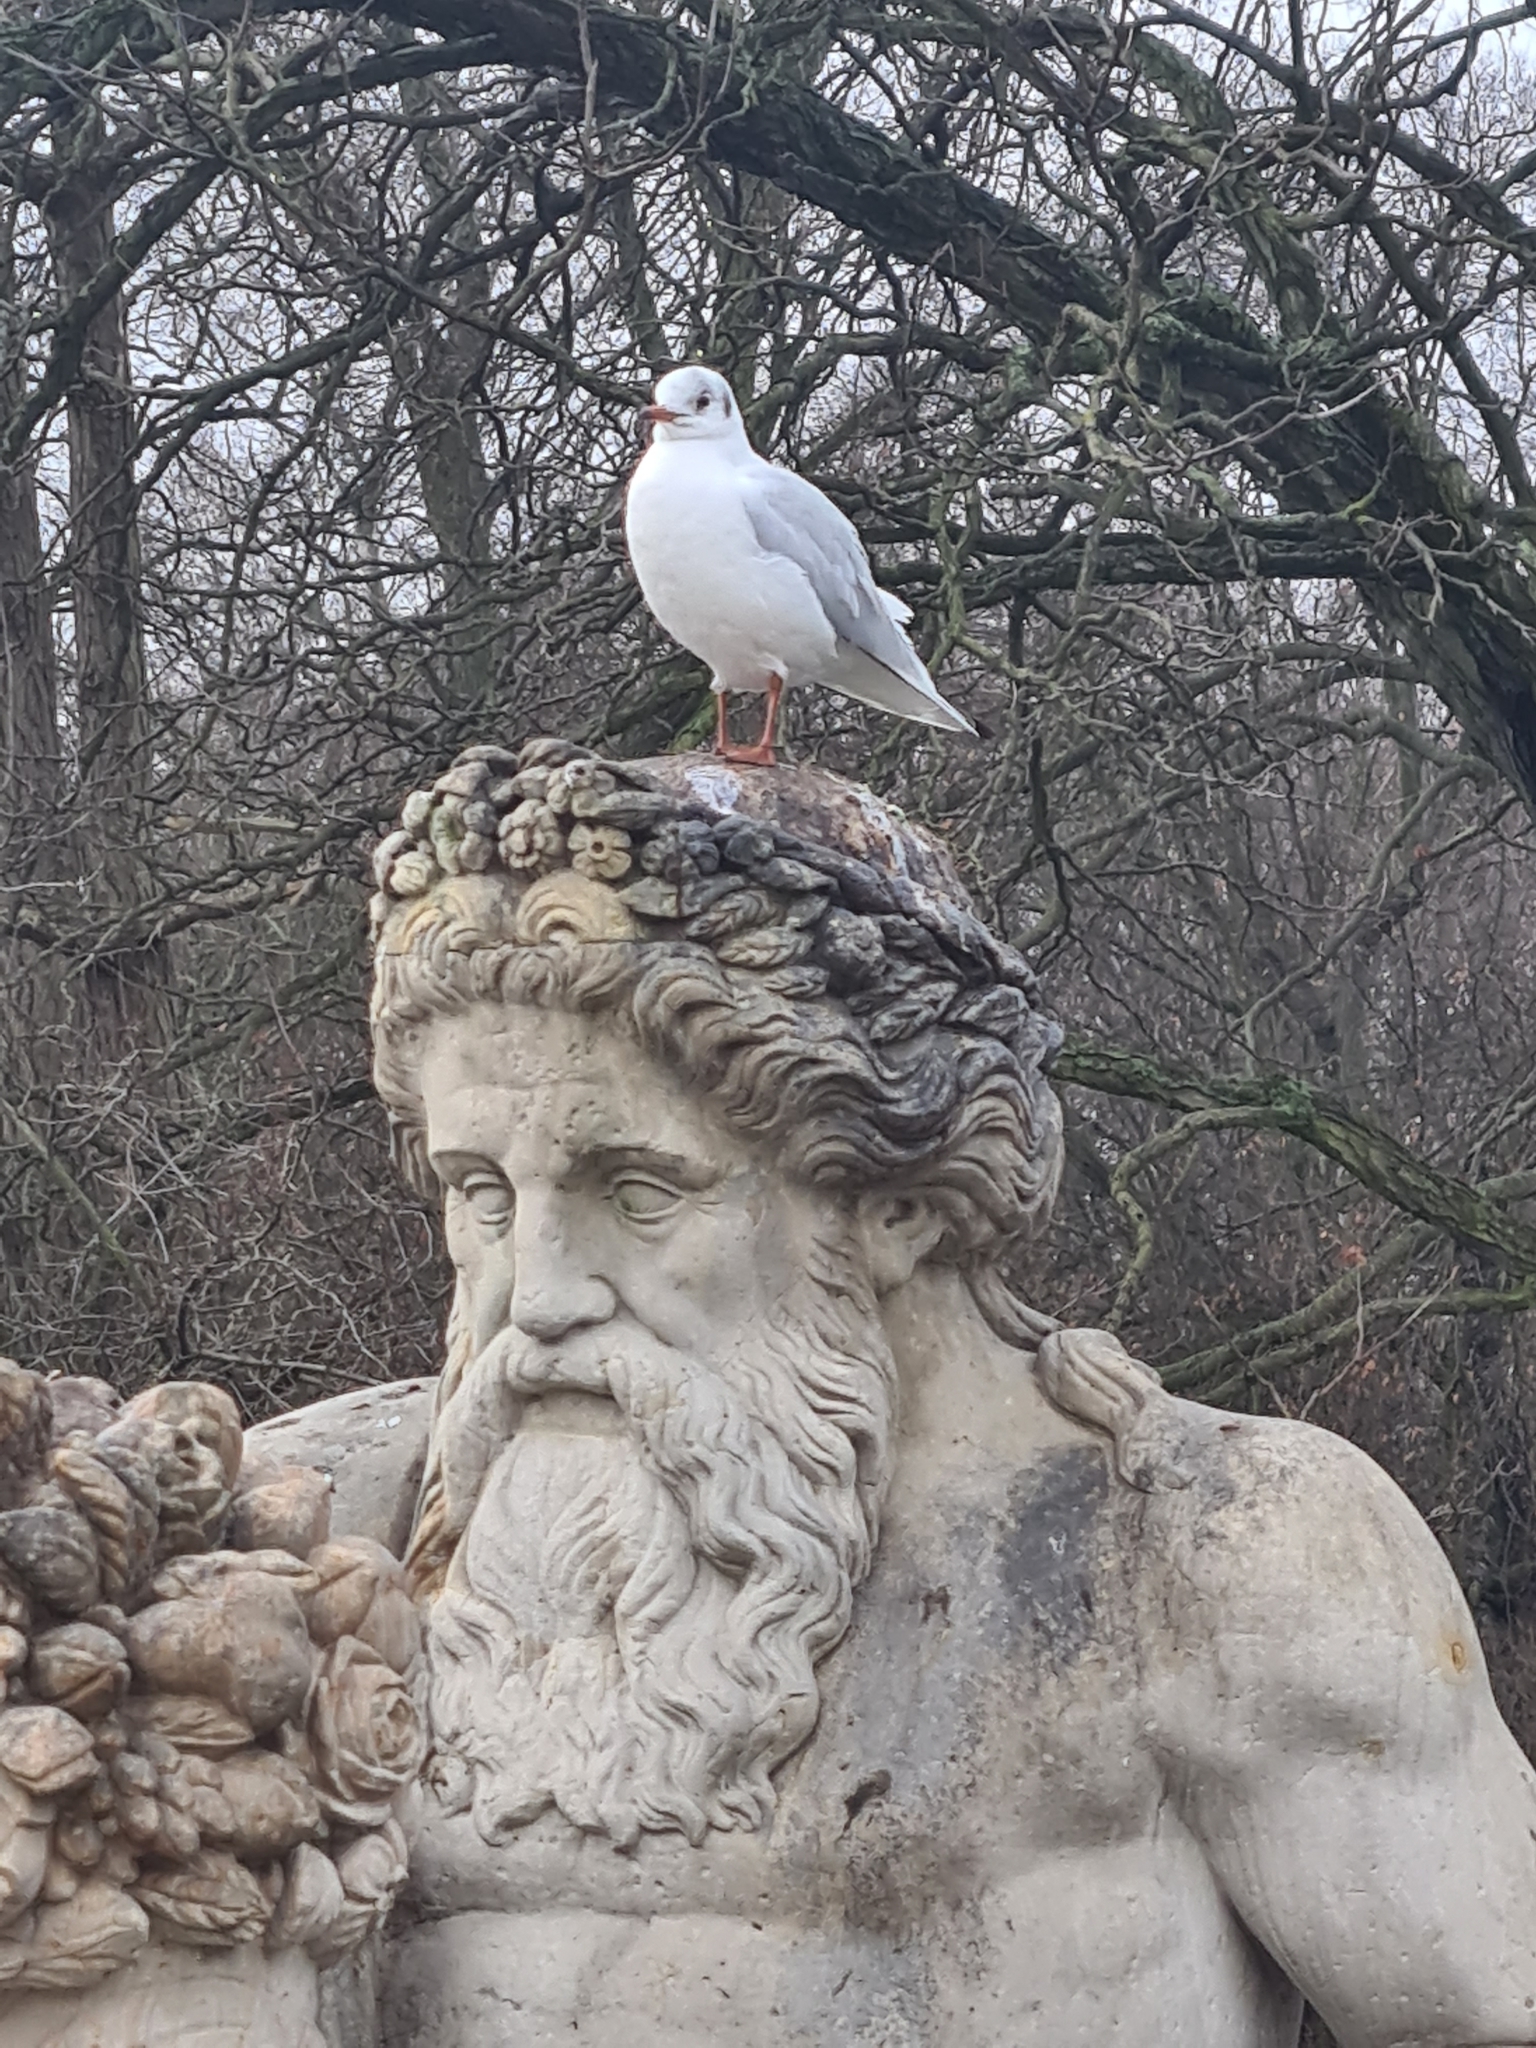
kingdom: Animalia
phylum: Chordata
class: Aves
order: Charadriiformes
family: Laridae
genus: Chroicocephalus
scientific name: Chroicocephalus ridibundus
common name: Black-headed gull
